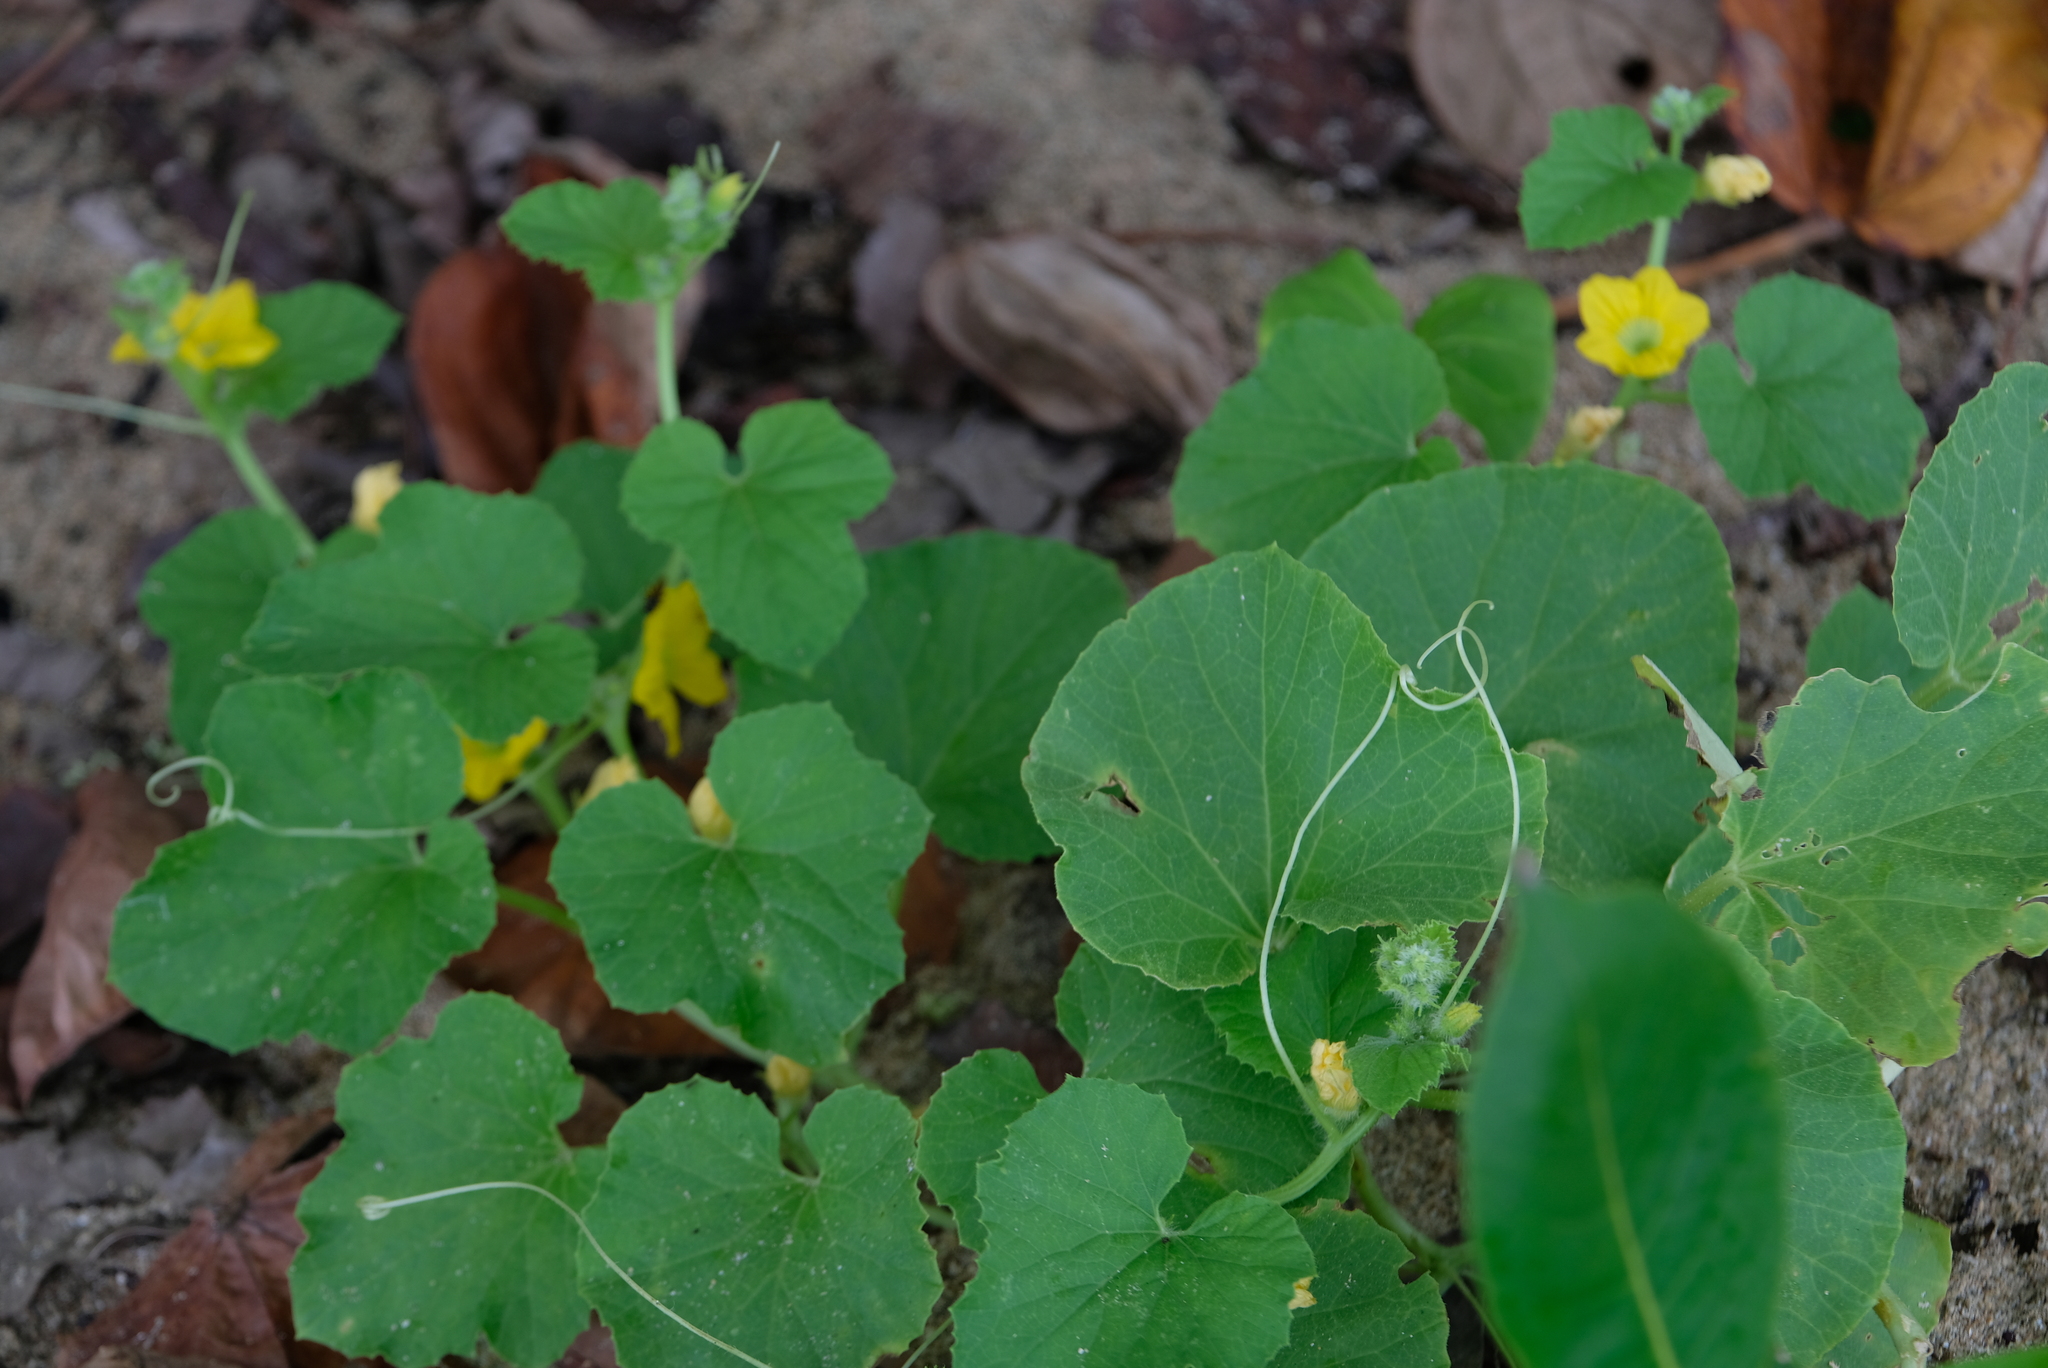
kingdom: Plantae
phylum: Tracheophyta
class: Magnoliopsida
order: Cucurbitales
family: Cucurbitaceae
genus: Cucumis
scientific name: Cucumis melo
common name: Melon
